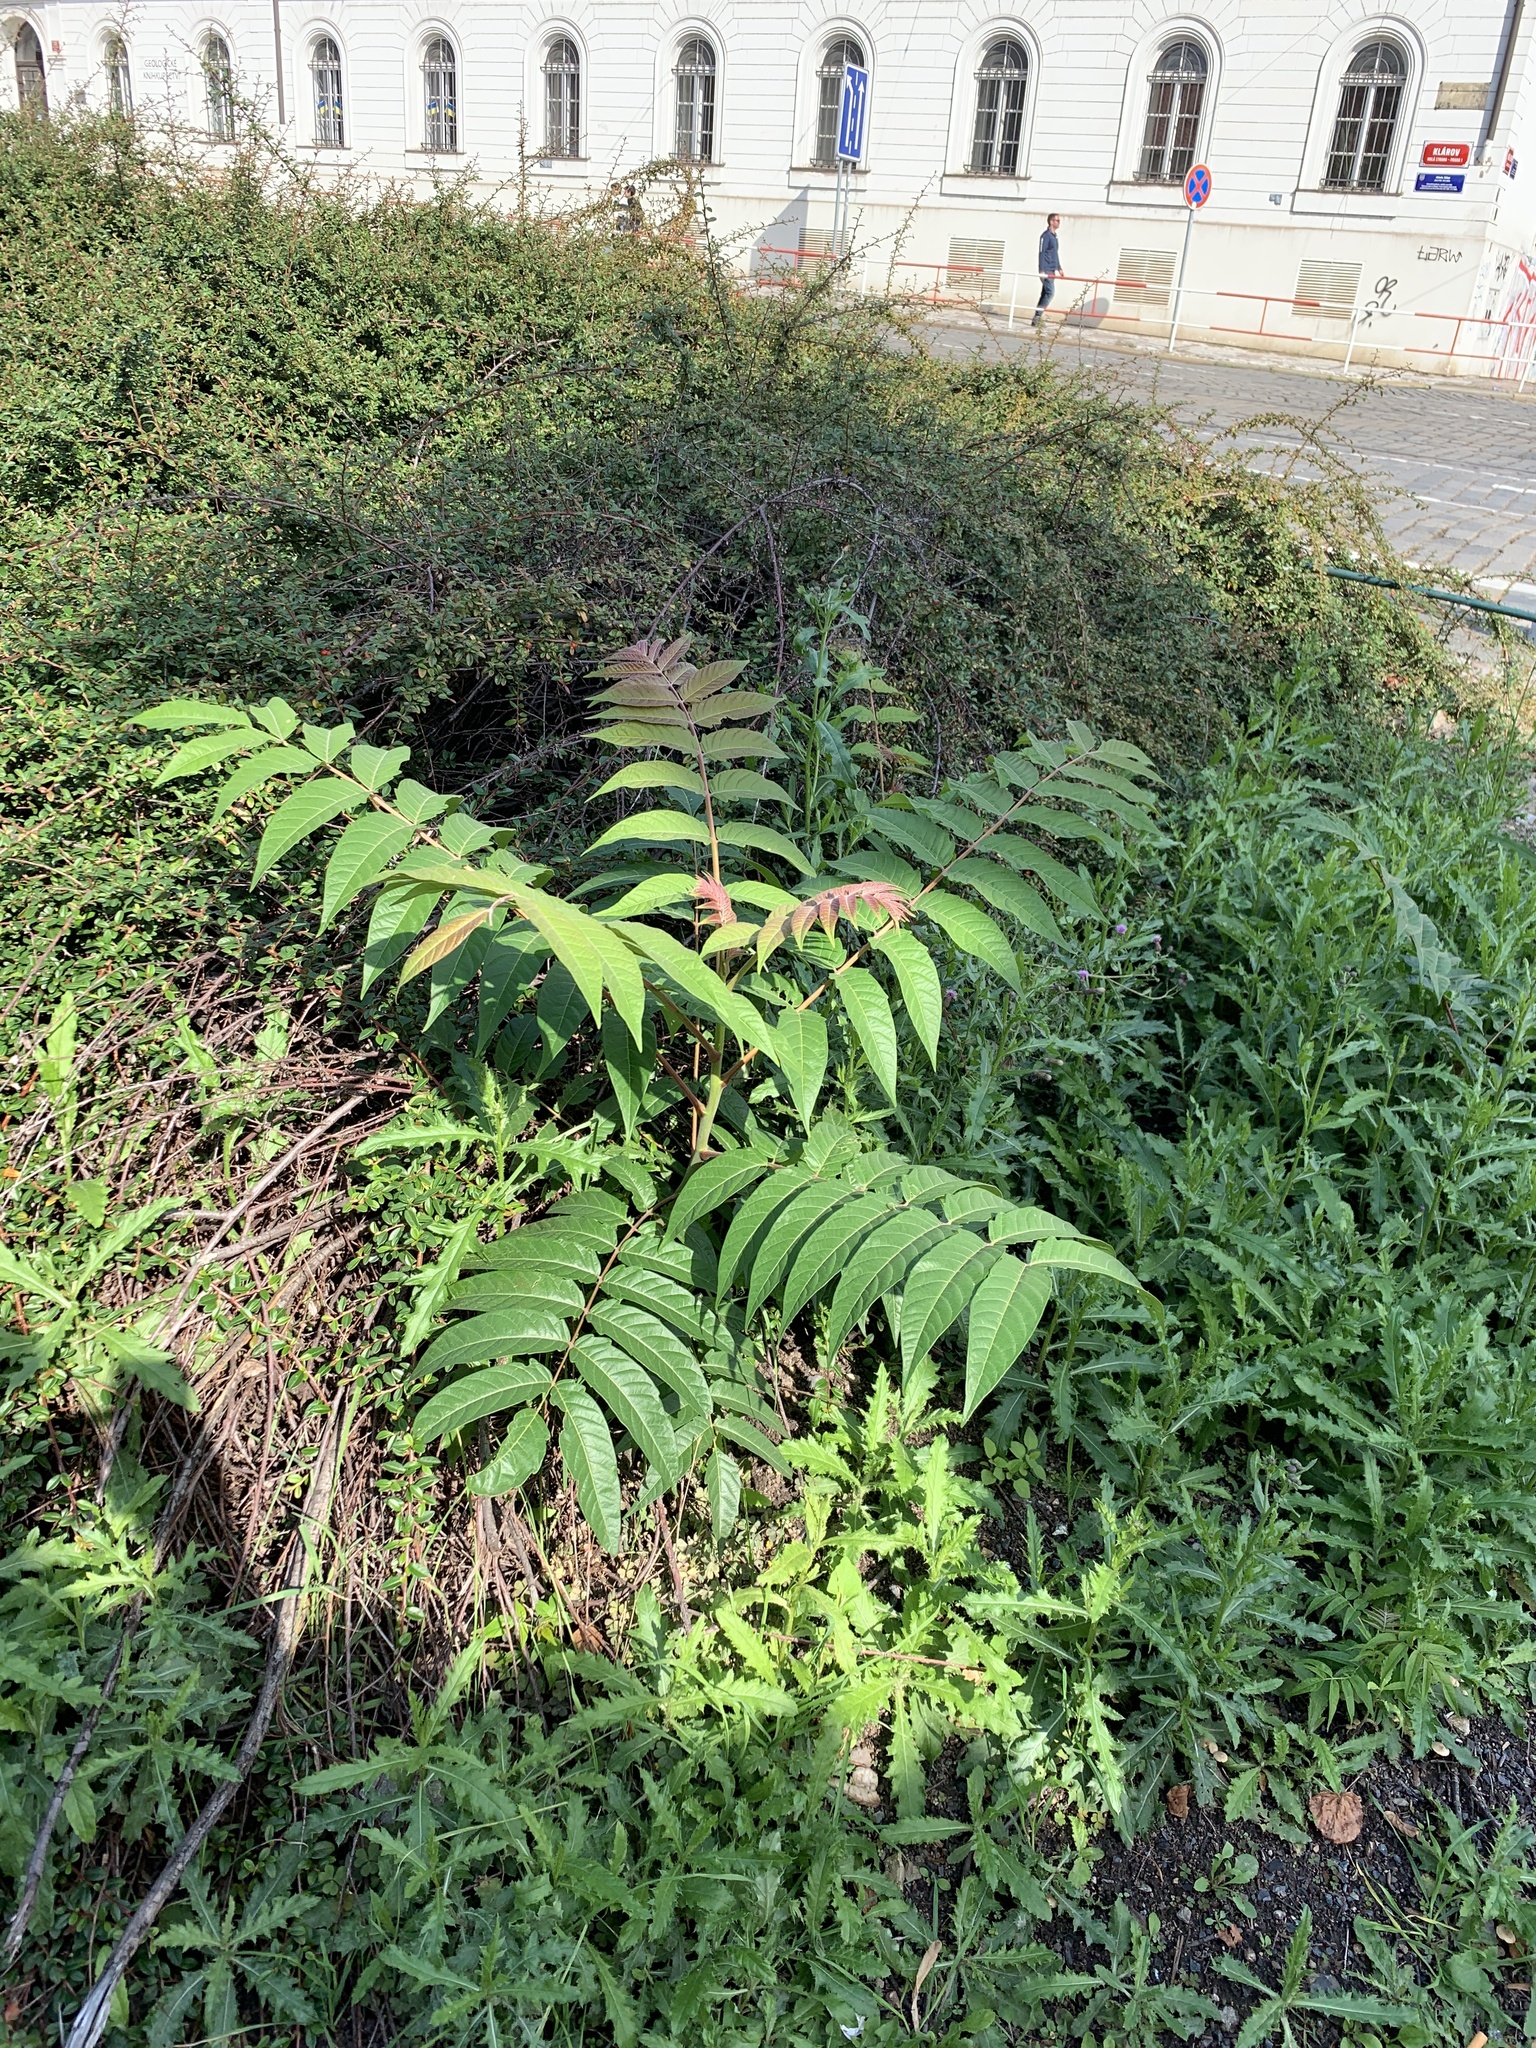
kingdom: Plantae
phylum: Tracheophyta
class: Magnoliopsida
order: Sapindales
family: Simaroubaceae
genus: Ailanthus
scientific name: Ailanthus altissima
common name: Tree-of-heaven
